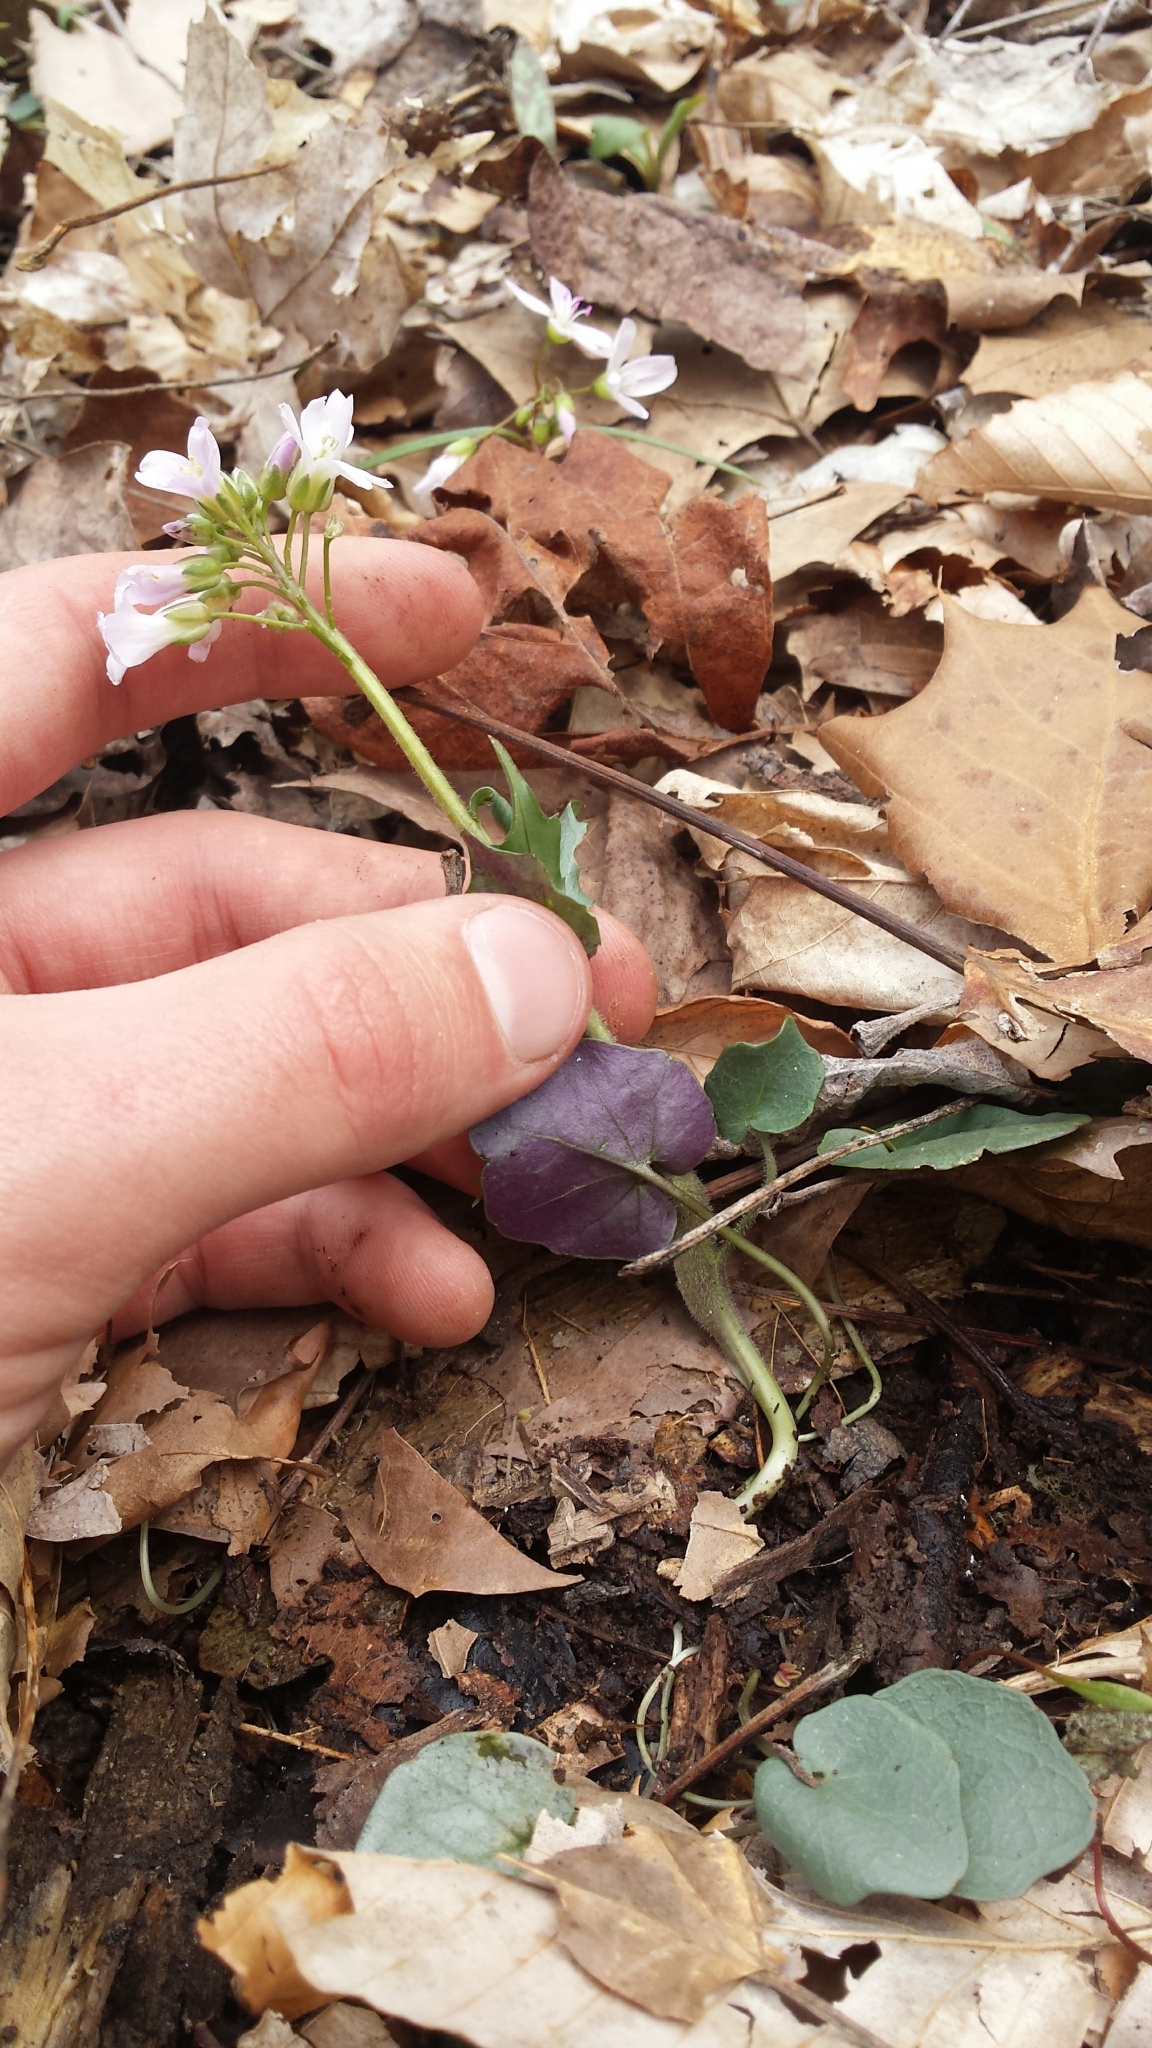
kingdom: Plantae
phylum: Tracheophyta
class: Magnoliopsida
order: Brassicales
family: Brassicaceae
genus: Cardamine
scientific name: Cardamine douglassii
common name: Purple cress
